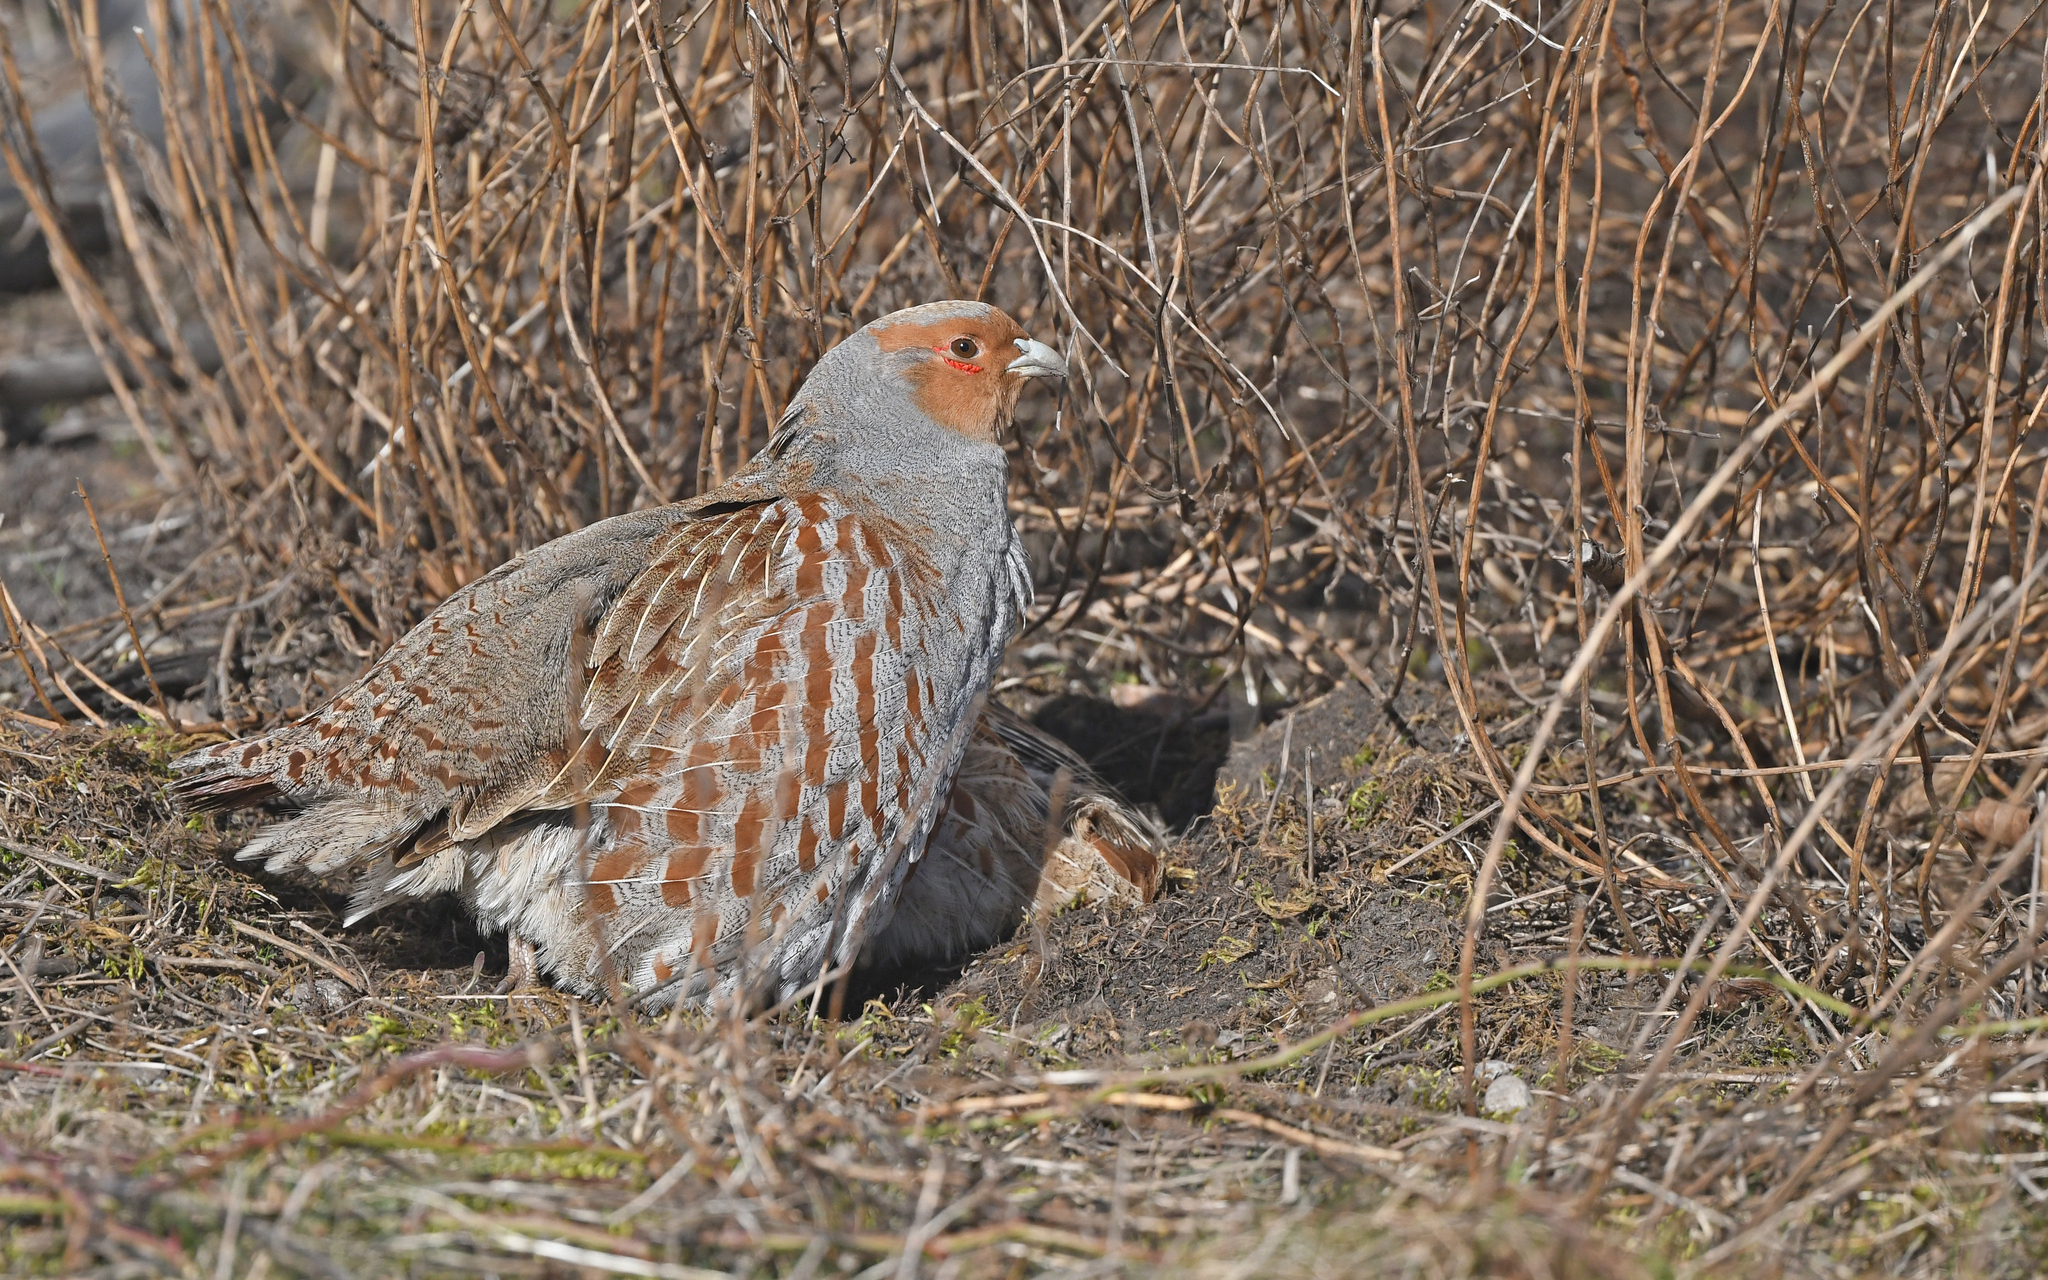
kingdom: Animalia
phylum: Chordata
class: Aves
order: Galliformes
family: Phasianidae
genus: Perdix
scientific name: Perdix perdix
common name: Grey partridge
